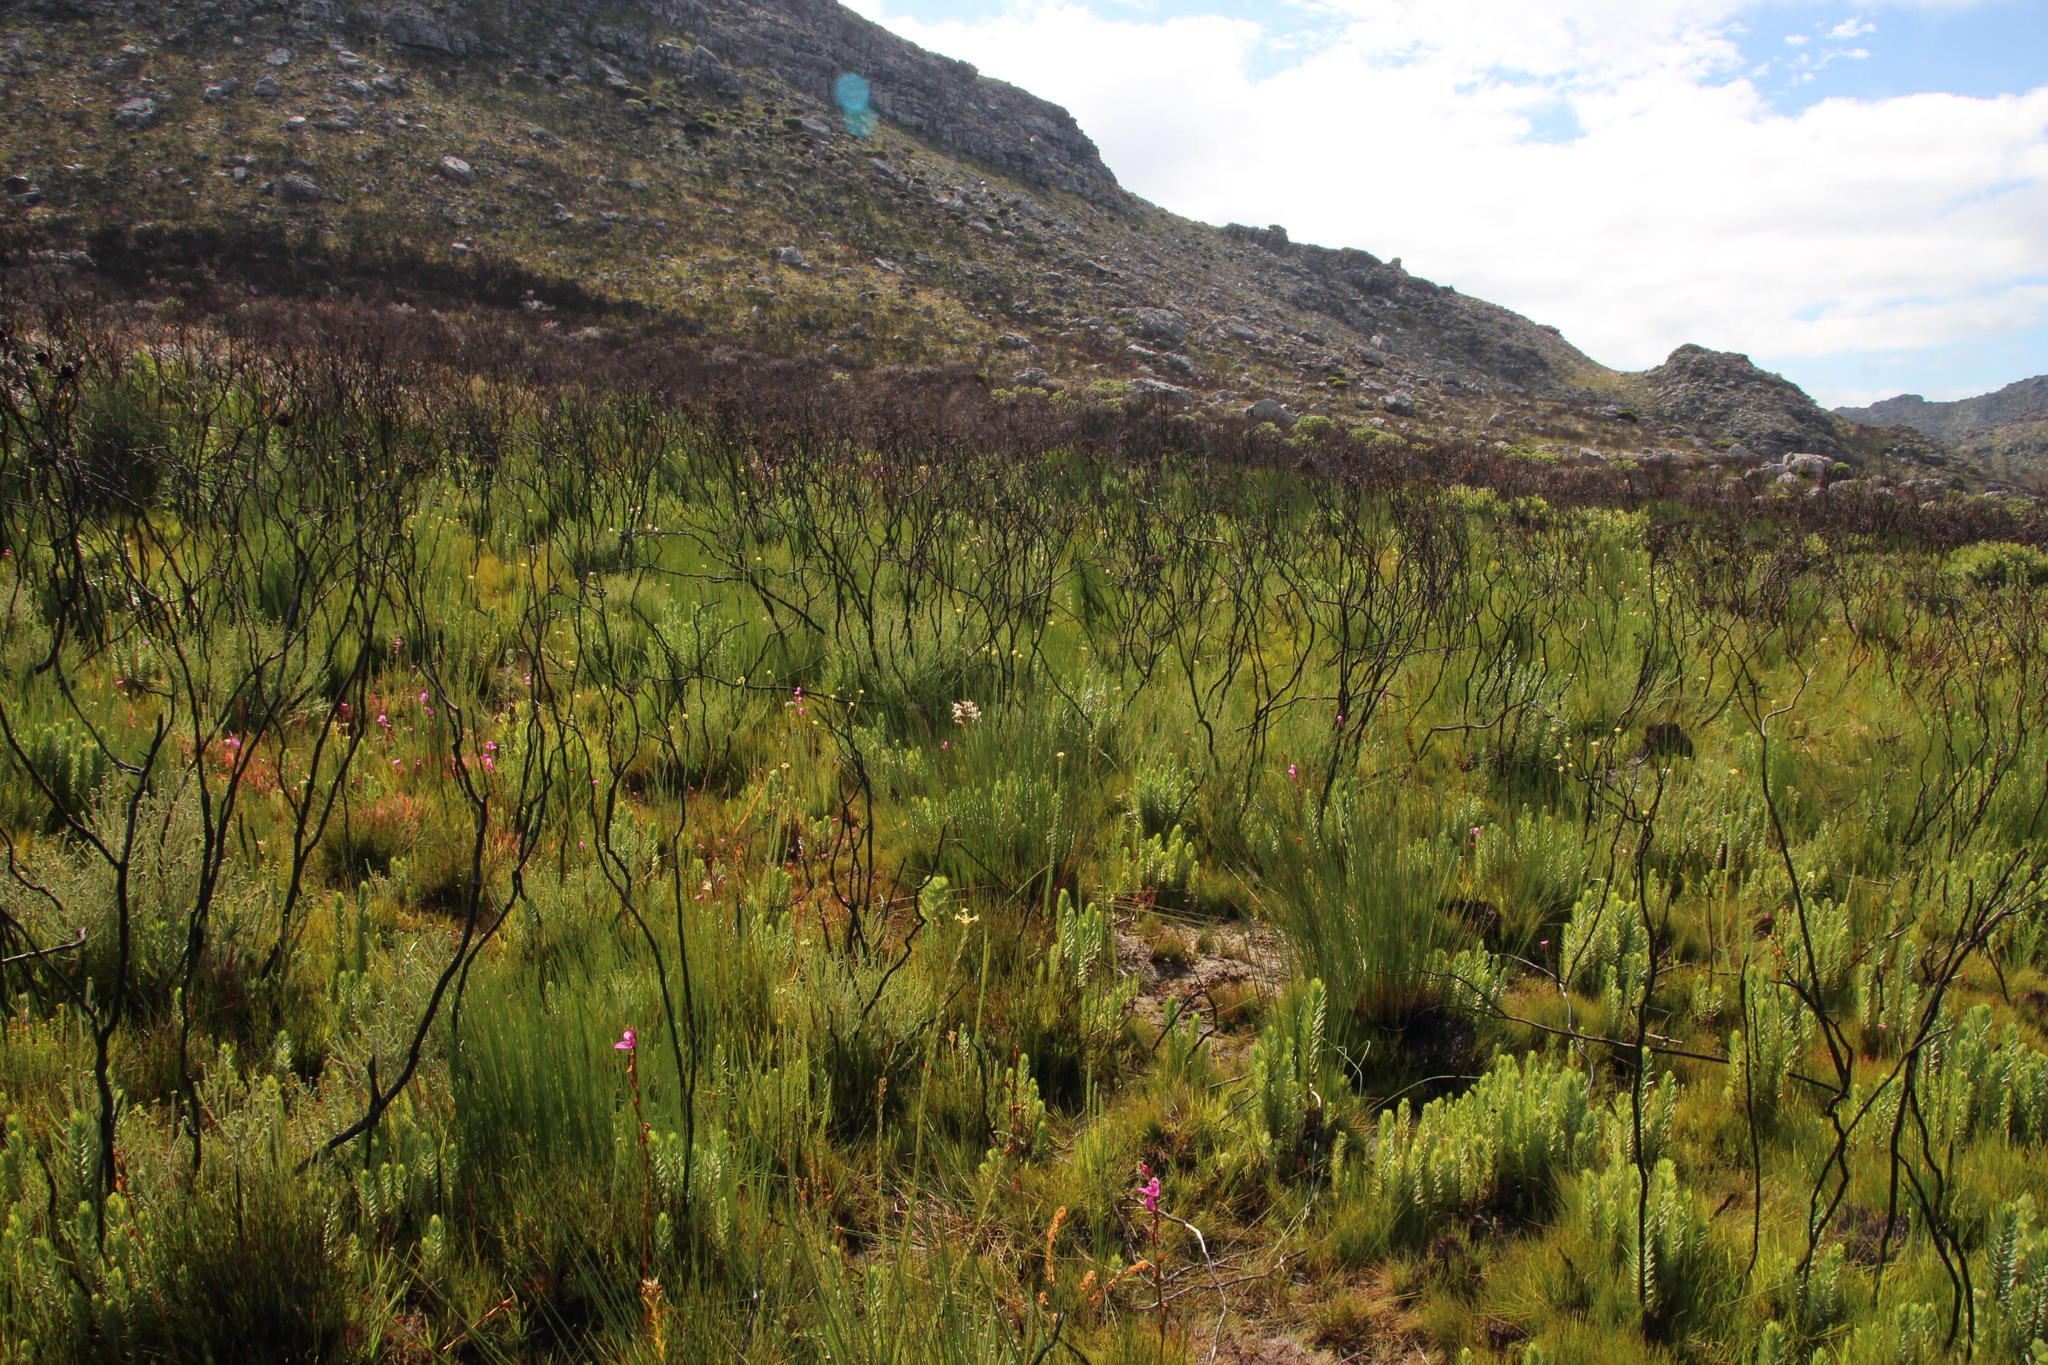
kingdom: Plantae
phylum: Tracheophyta
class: Magnoliopsida
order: Malvales
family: Thymelaeaceae
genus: Gnidia
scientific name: Gnidia oppositifolia
